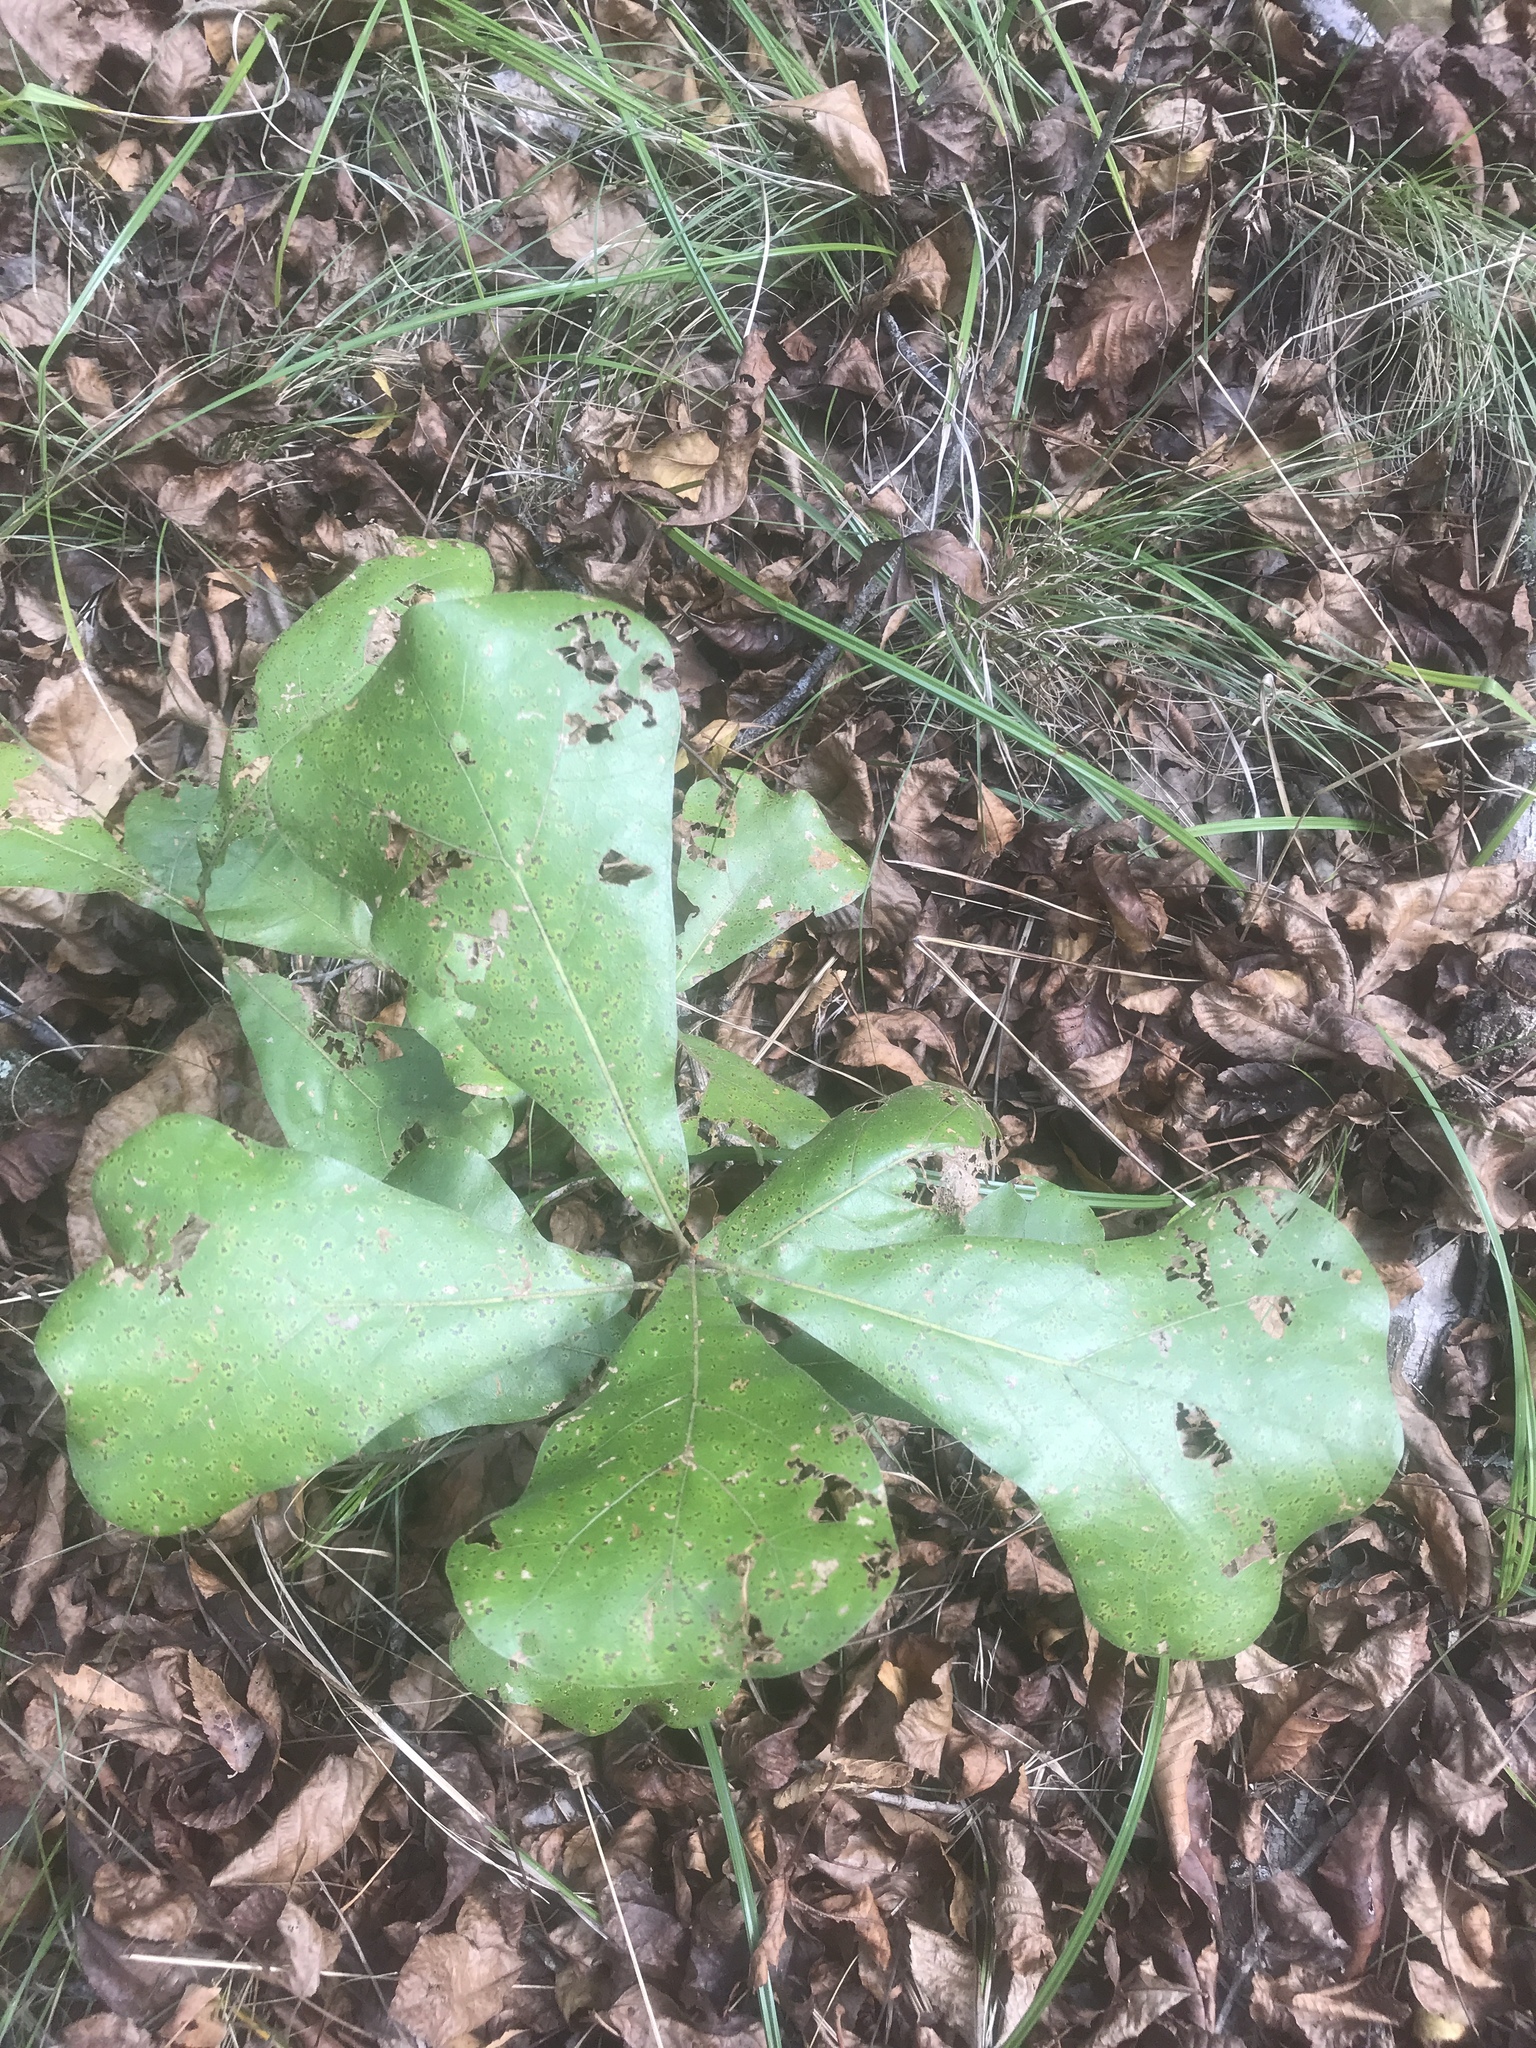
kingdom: Plantae
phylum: Tracheophyta
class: Magnoliopsida
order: Fagales
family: Fagaceae
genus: Quercus
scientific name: Quercus marilandica
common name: Blackjack oak
